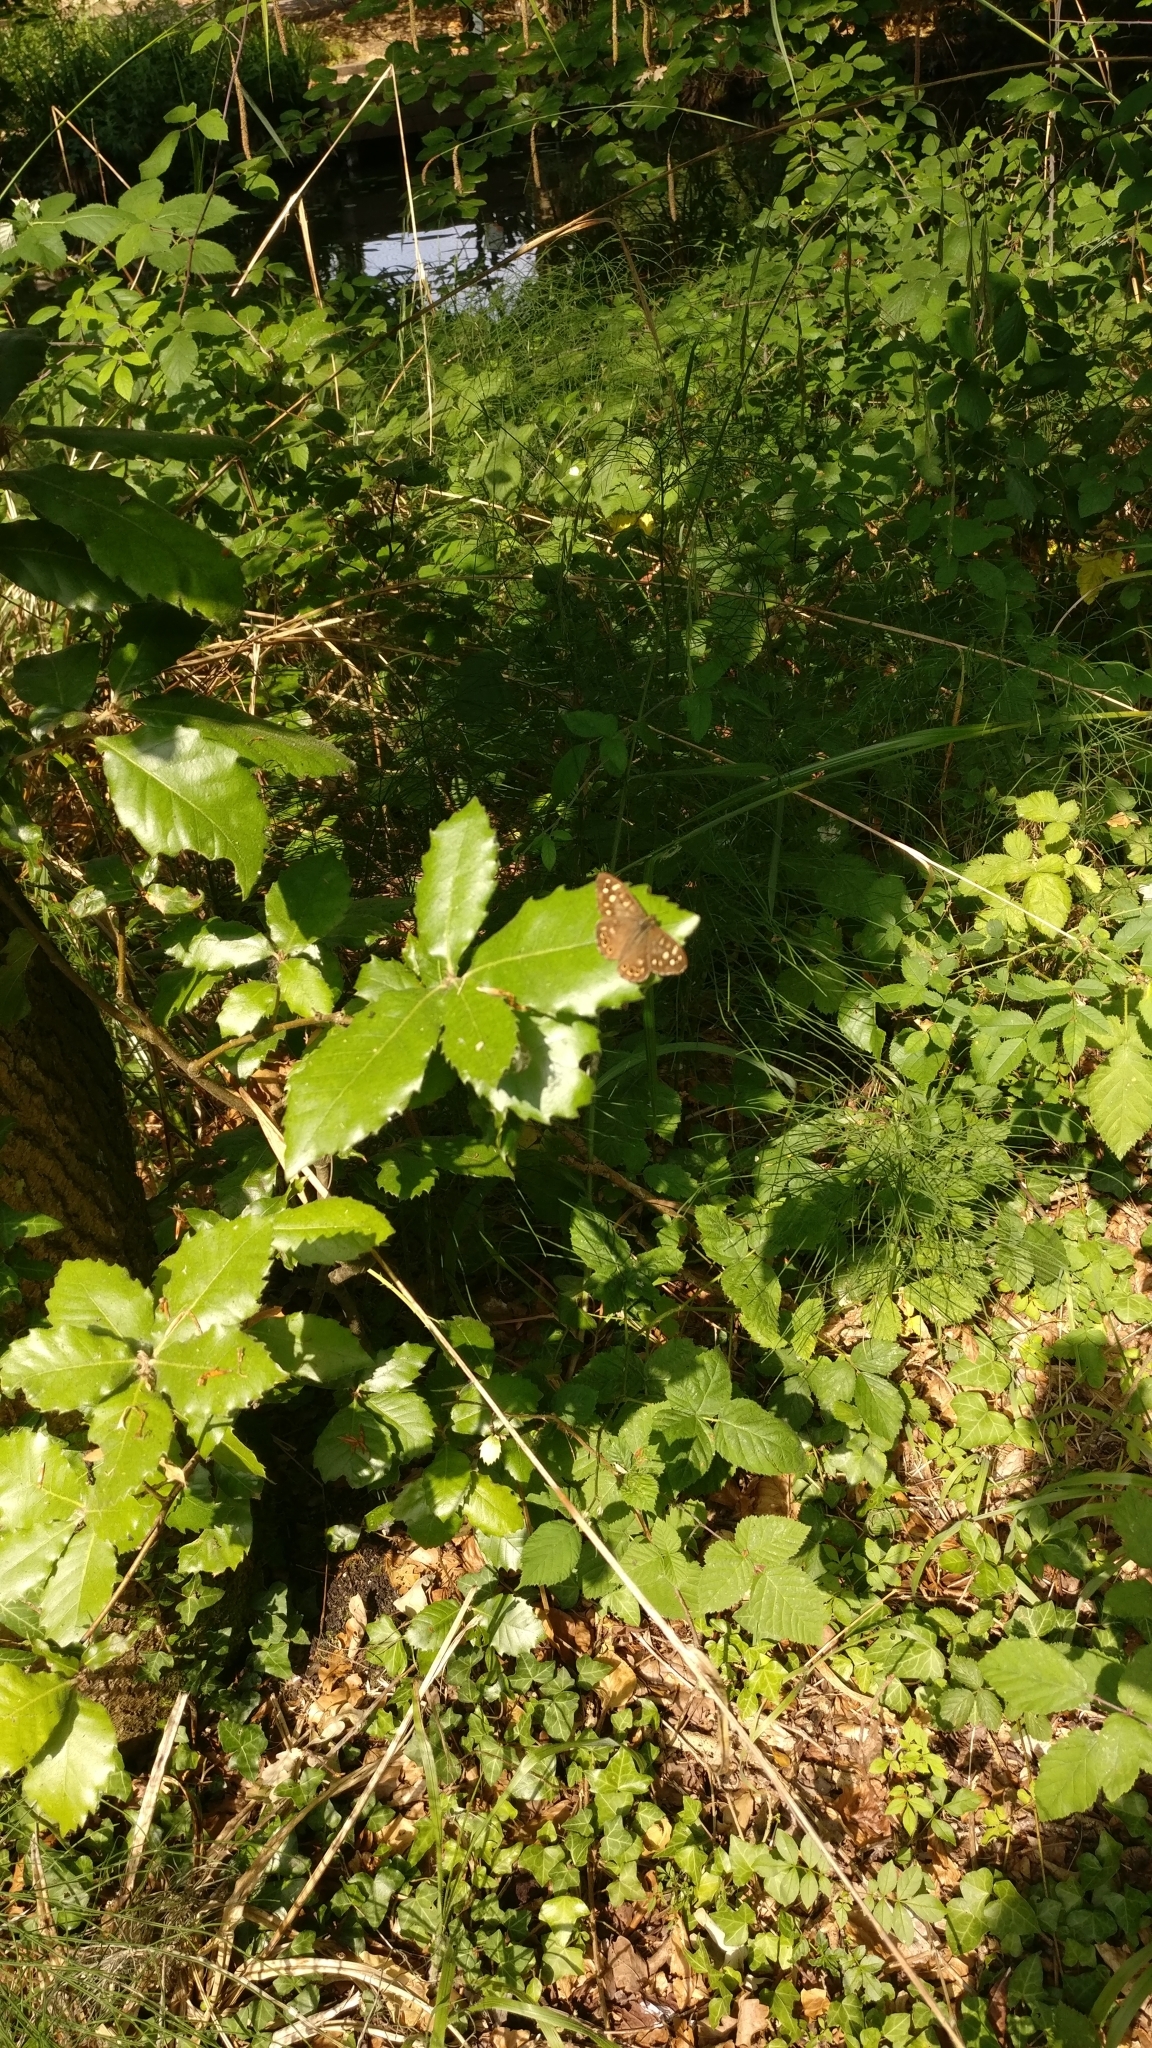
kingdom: Animalia
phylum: Arthropoda
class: Insecta
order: Lepidoptera
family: Nymphalidae
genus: Pararge
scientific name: Pararge aegeria
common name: Speckled wood
